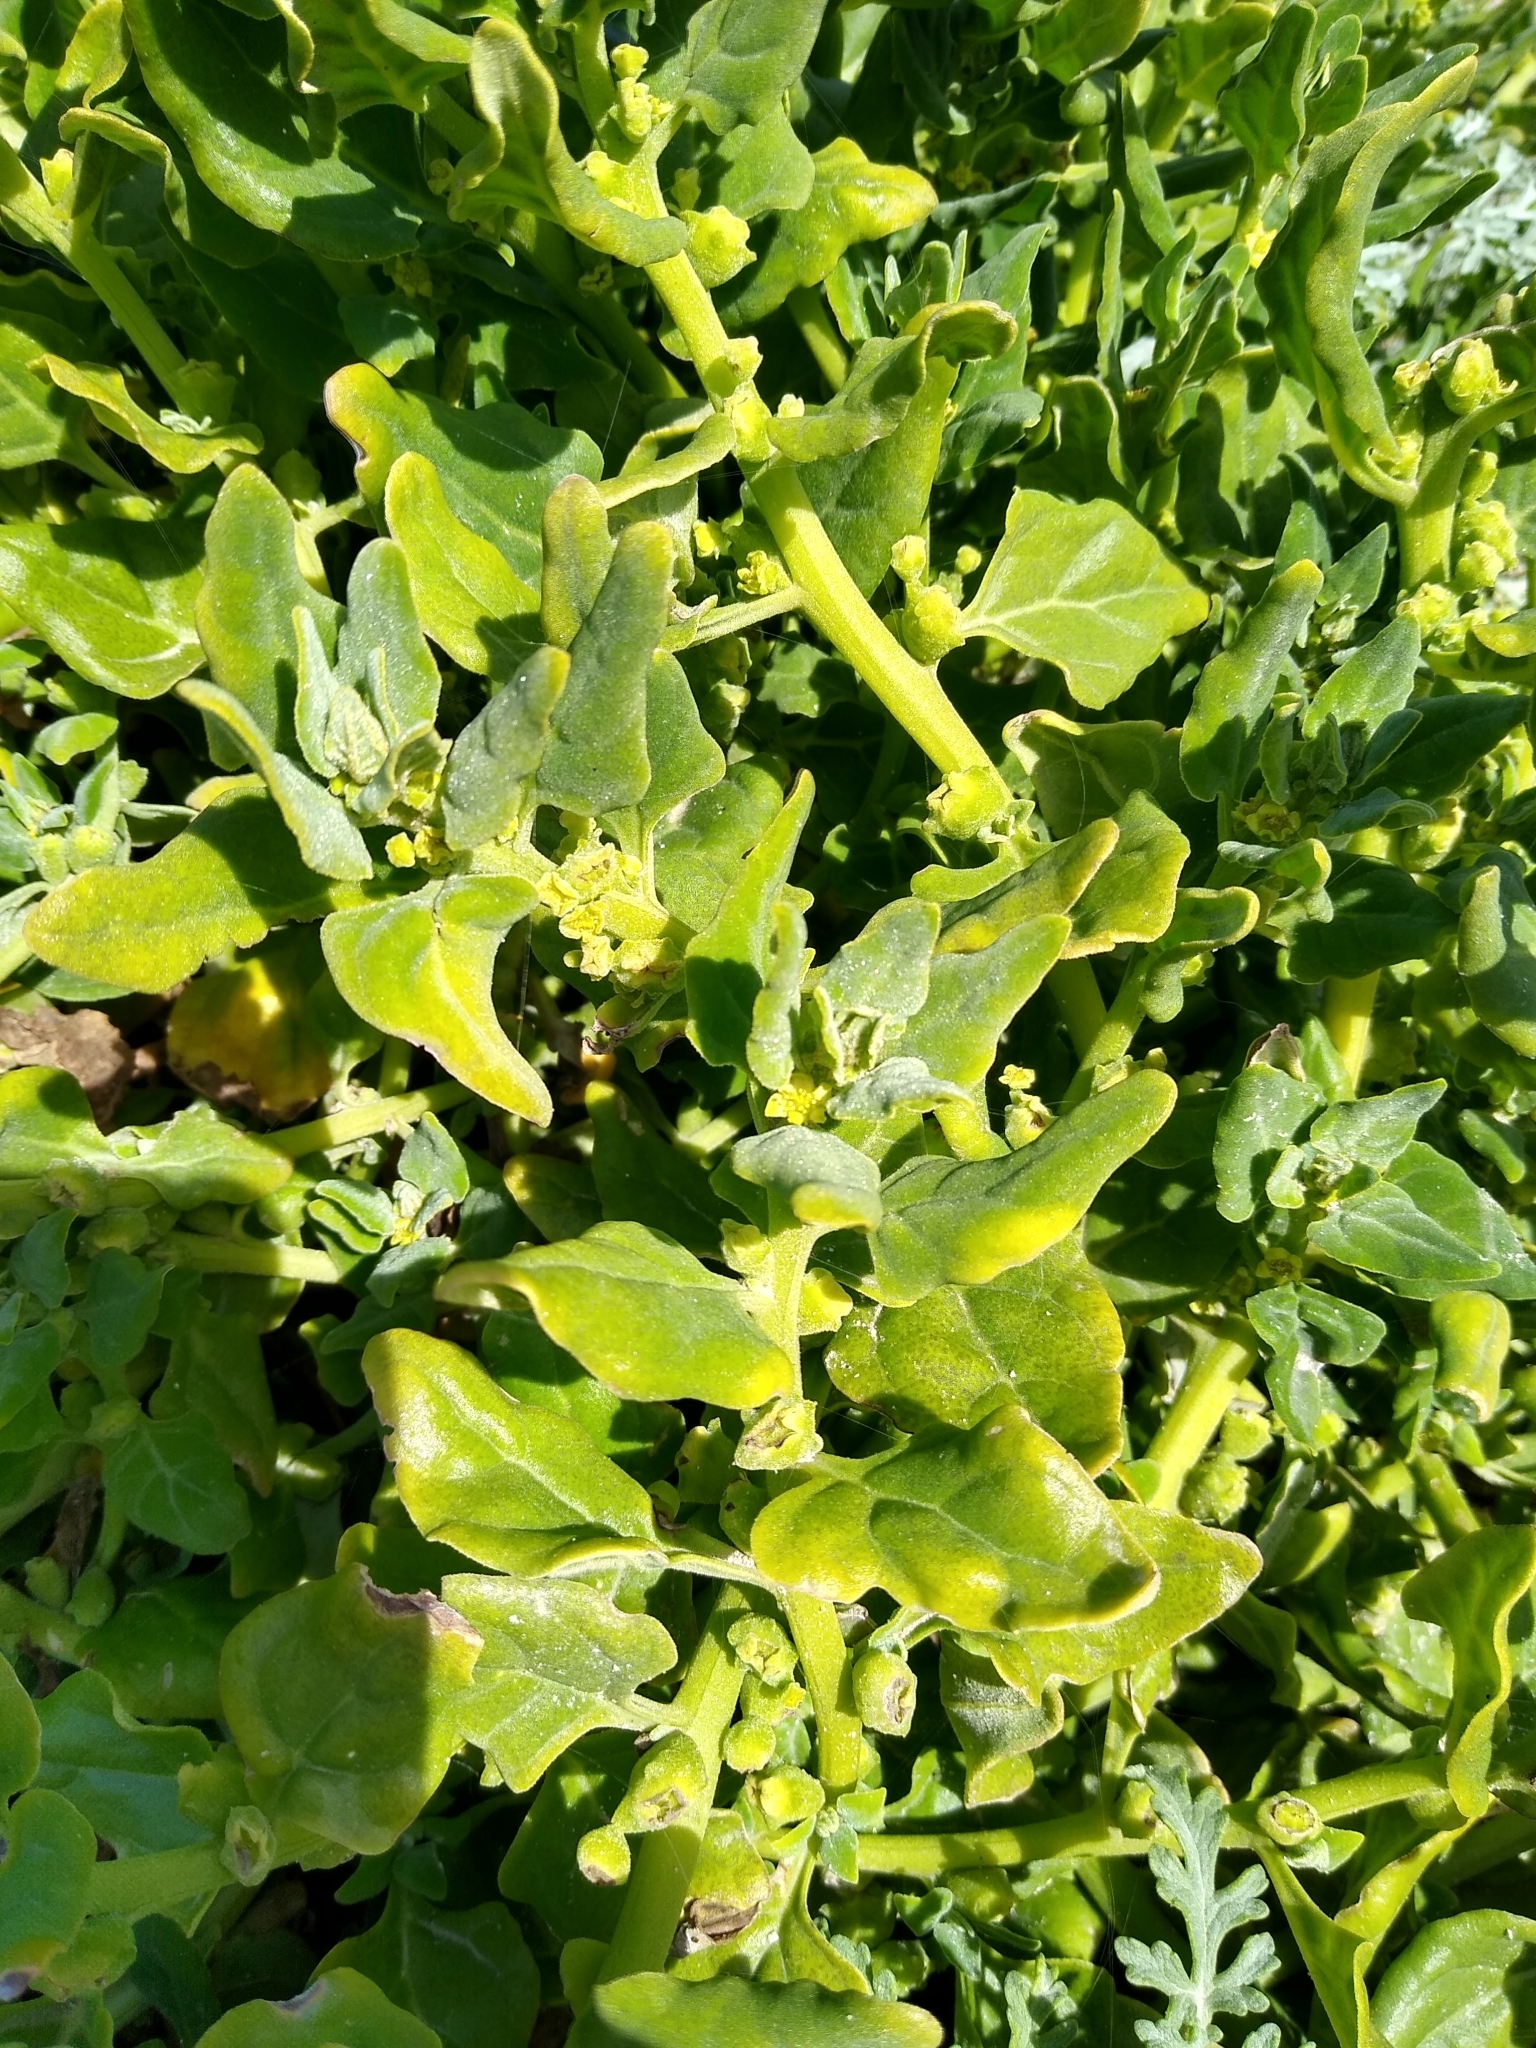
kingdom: Plantae
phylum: Tracheophyta
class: Magnoliopsida
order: Caryophyllales
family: Aizoaceae
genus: Tetragonia
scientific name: Tetragonia tetragonoides
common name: New zealand-spinach
